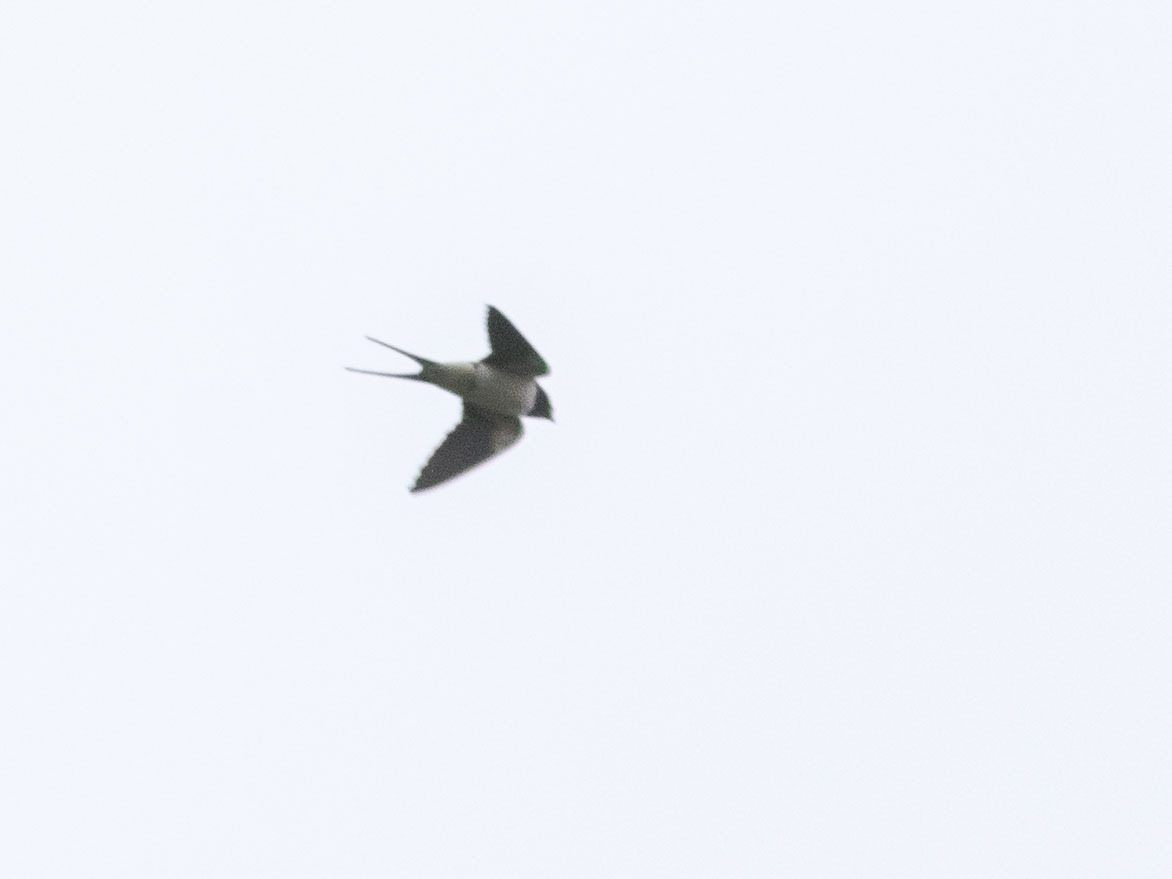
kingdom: Animalia
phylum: Chordata
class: Aves
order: Passeriformes
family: Hirundinidae
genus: Hirundo
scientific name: Hirundo rustica
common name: Barn swallow
